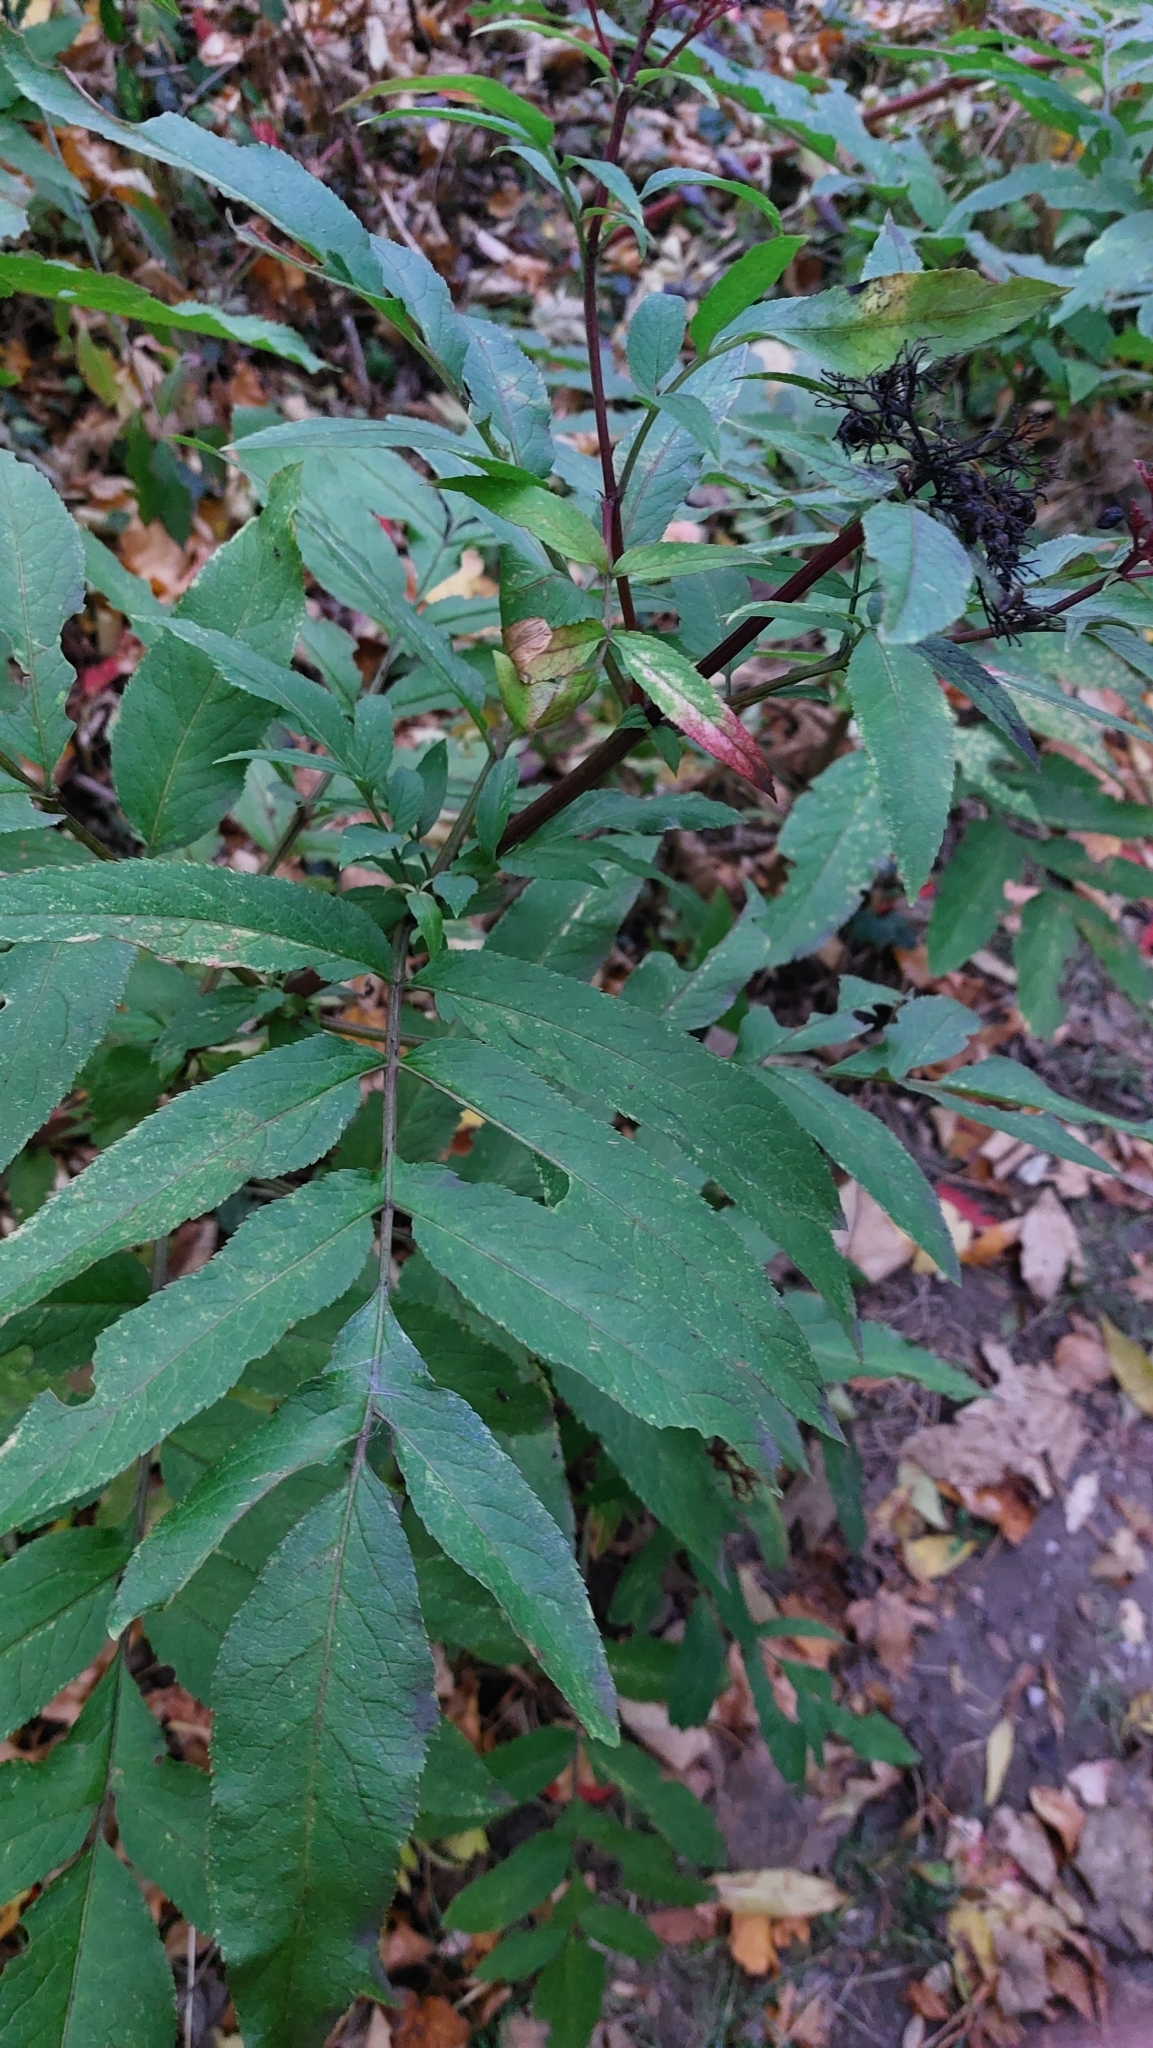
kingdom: Plantae
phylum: Tracheophyta
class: Magnoliopsida
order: Dipsacales
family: Viburnaceae
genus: Sambucus
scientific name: Sambucus ebulus
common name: Dwarf elder
